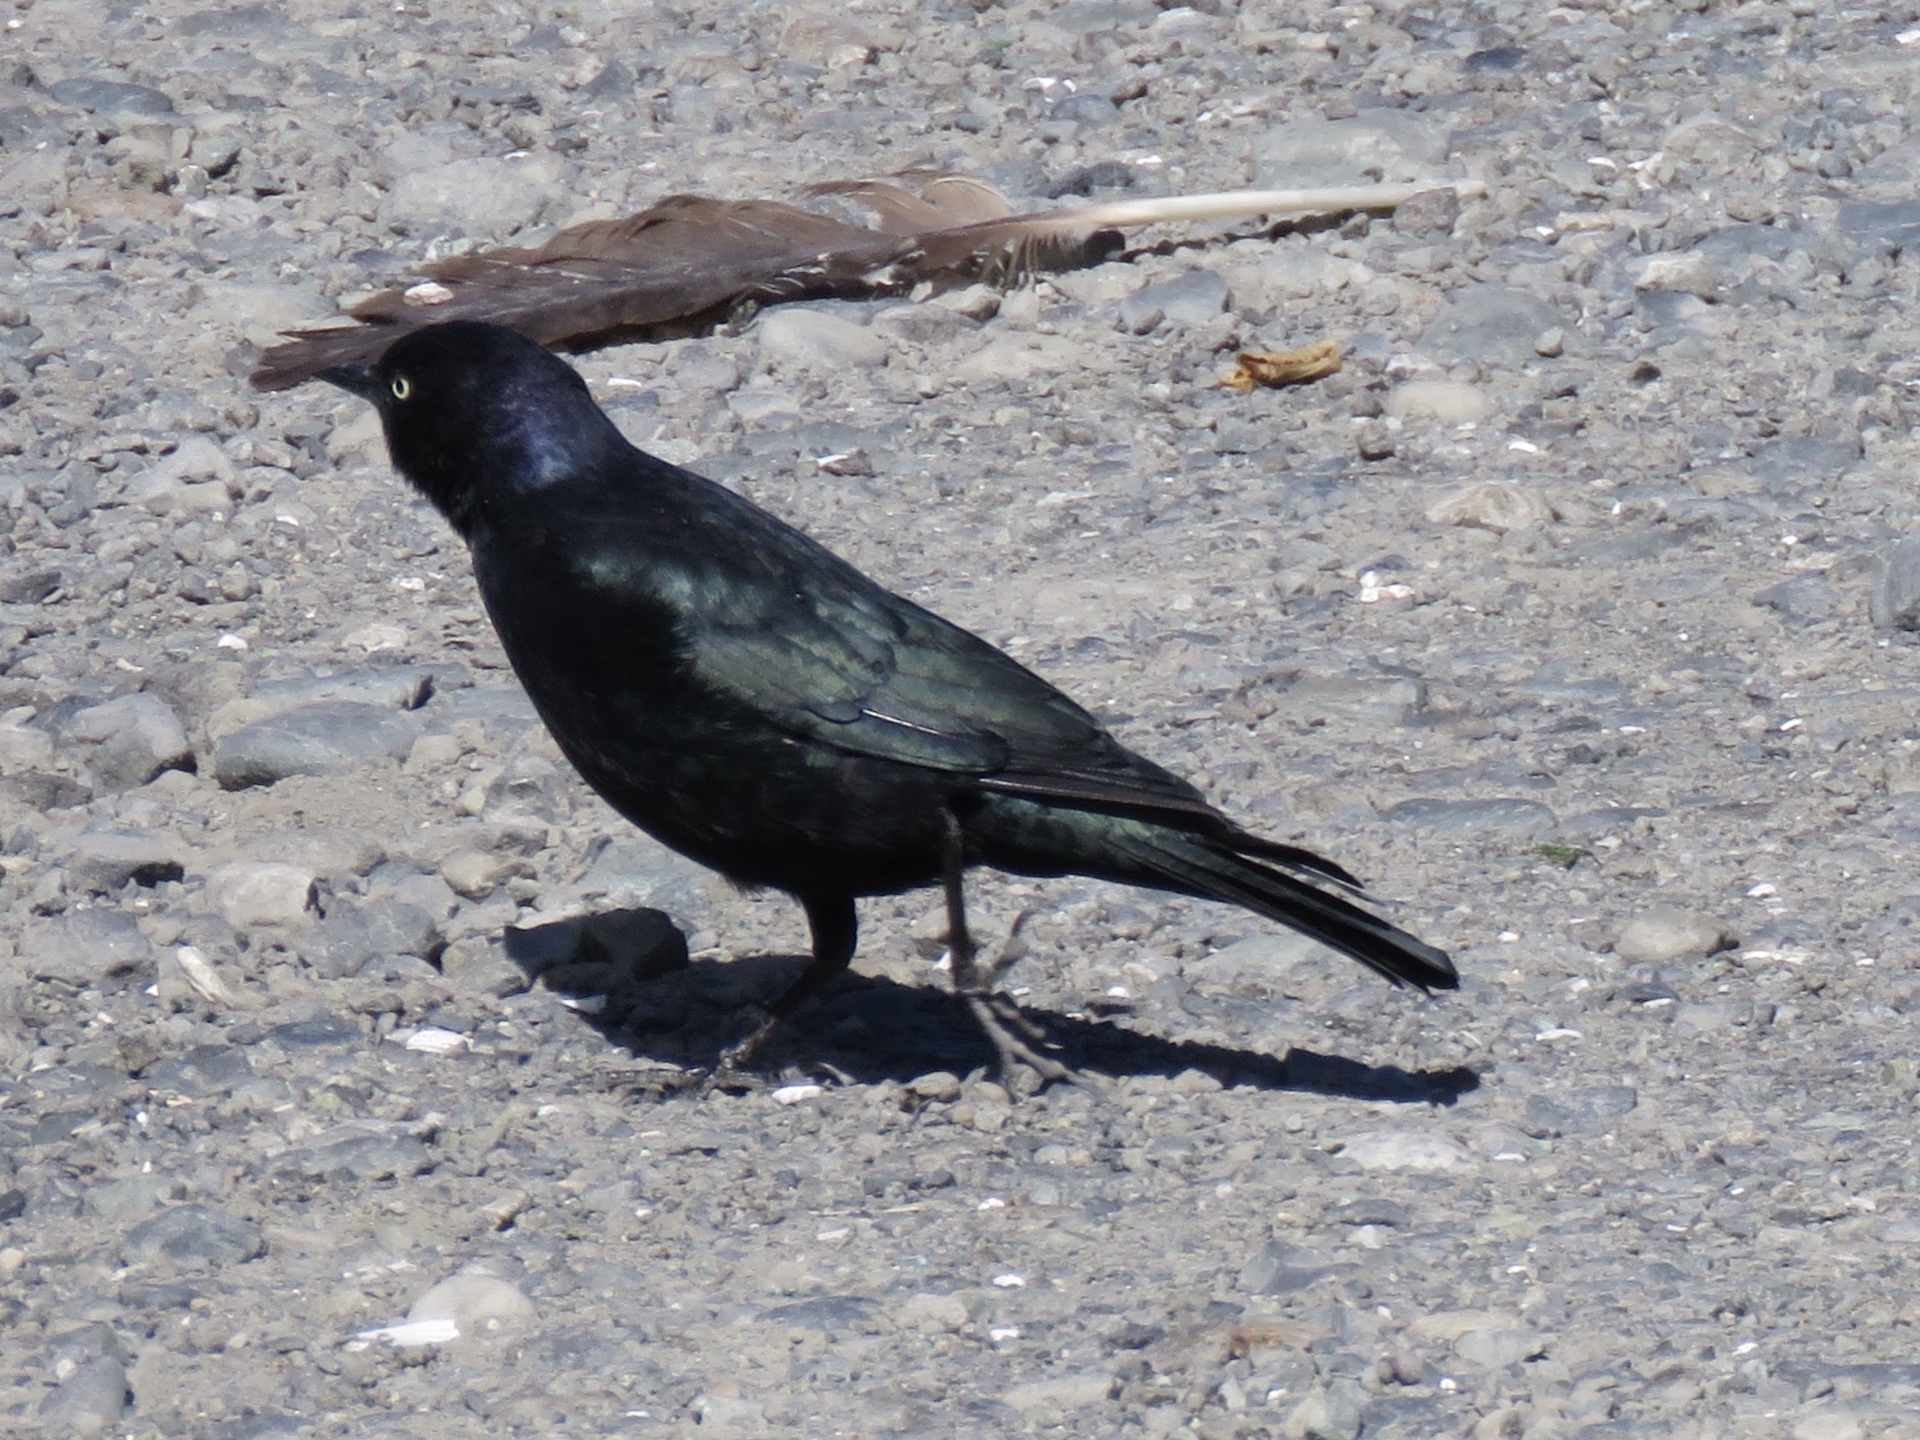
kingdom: Animalia
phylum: Chordata
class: Aves
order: Passeriformes
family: Icteridae
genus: Euphagus
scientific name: Euphagus cyanocephalus
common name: Brewer's blackbird
